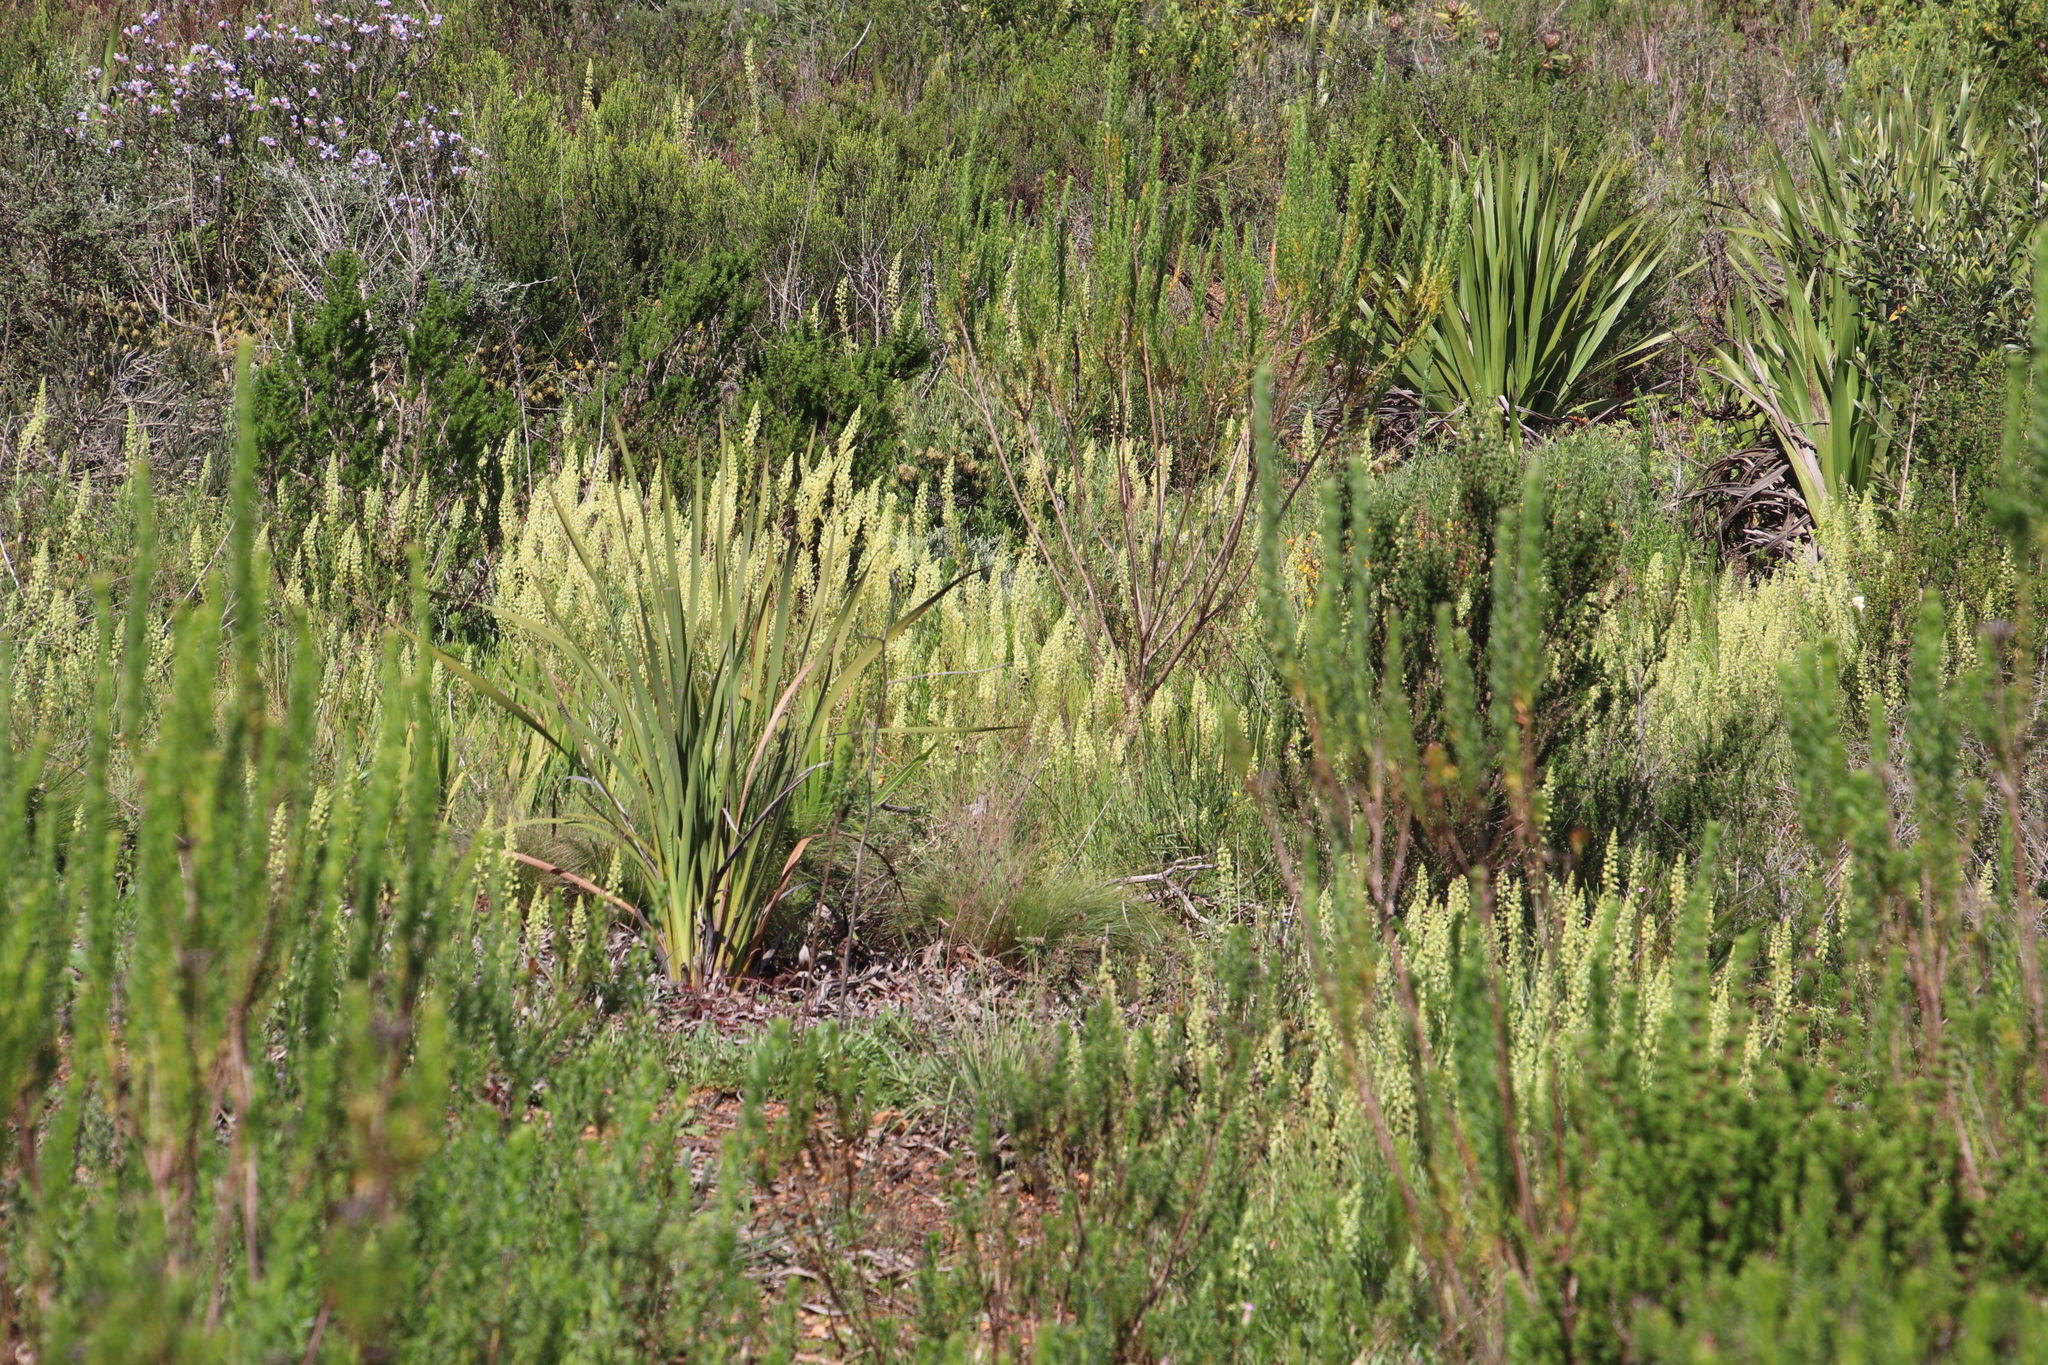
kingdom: Plantae
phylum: Tracheophyta
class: Magnoliopsida
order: Brassicales
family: Resedaceae
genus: Reseda
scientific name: Reseda lutea
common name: Wild mignonette
